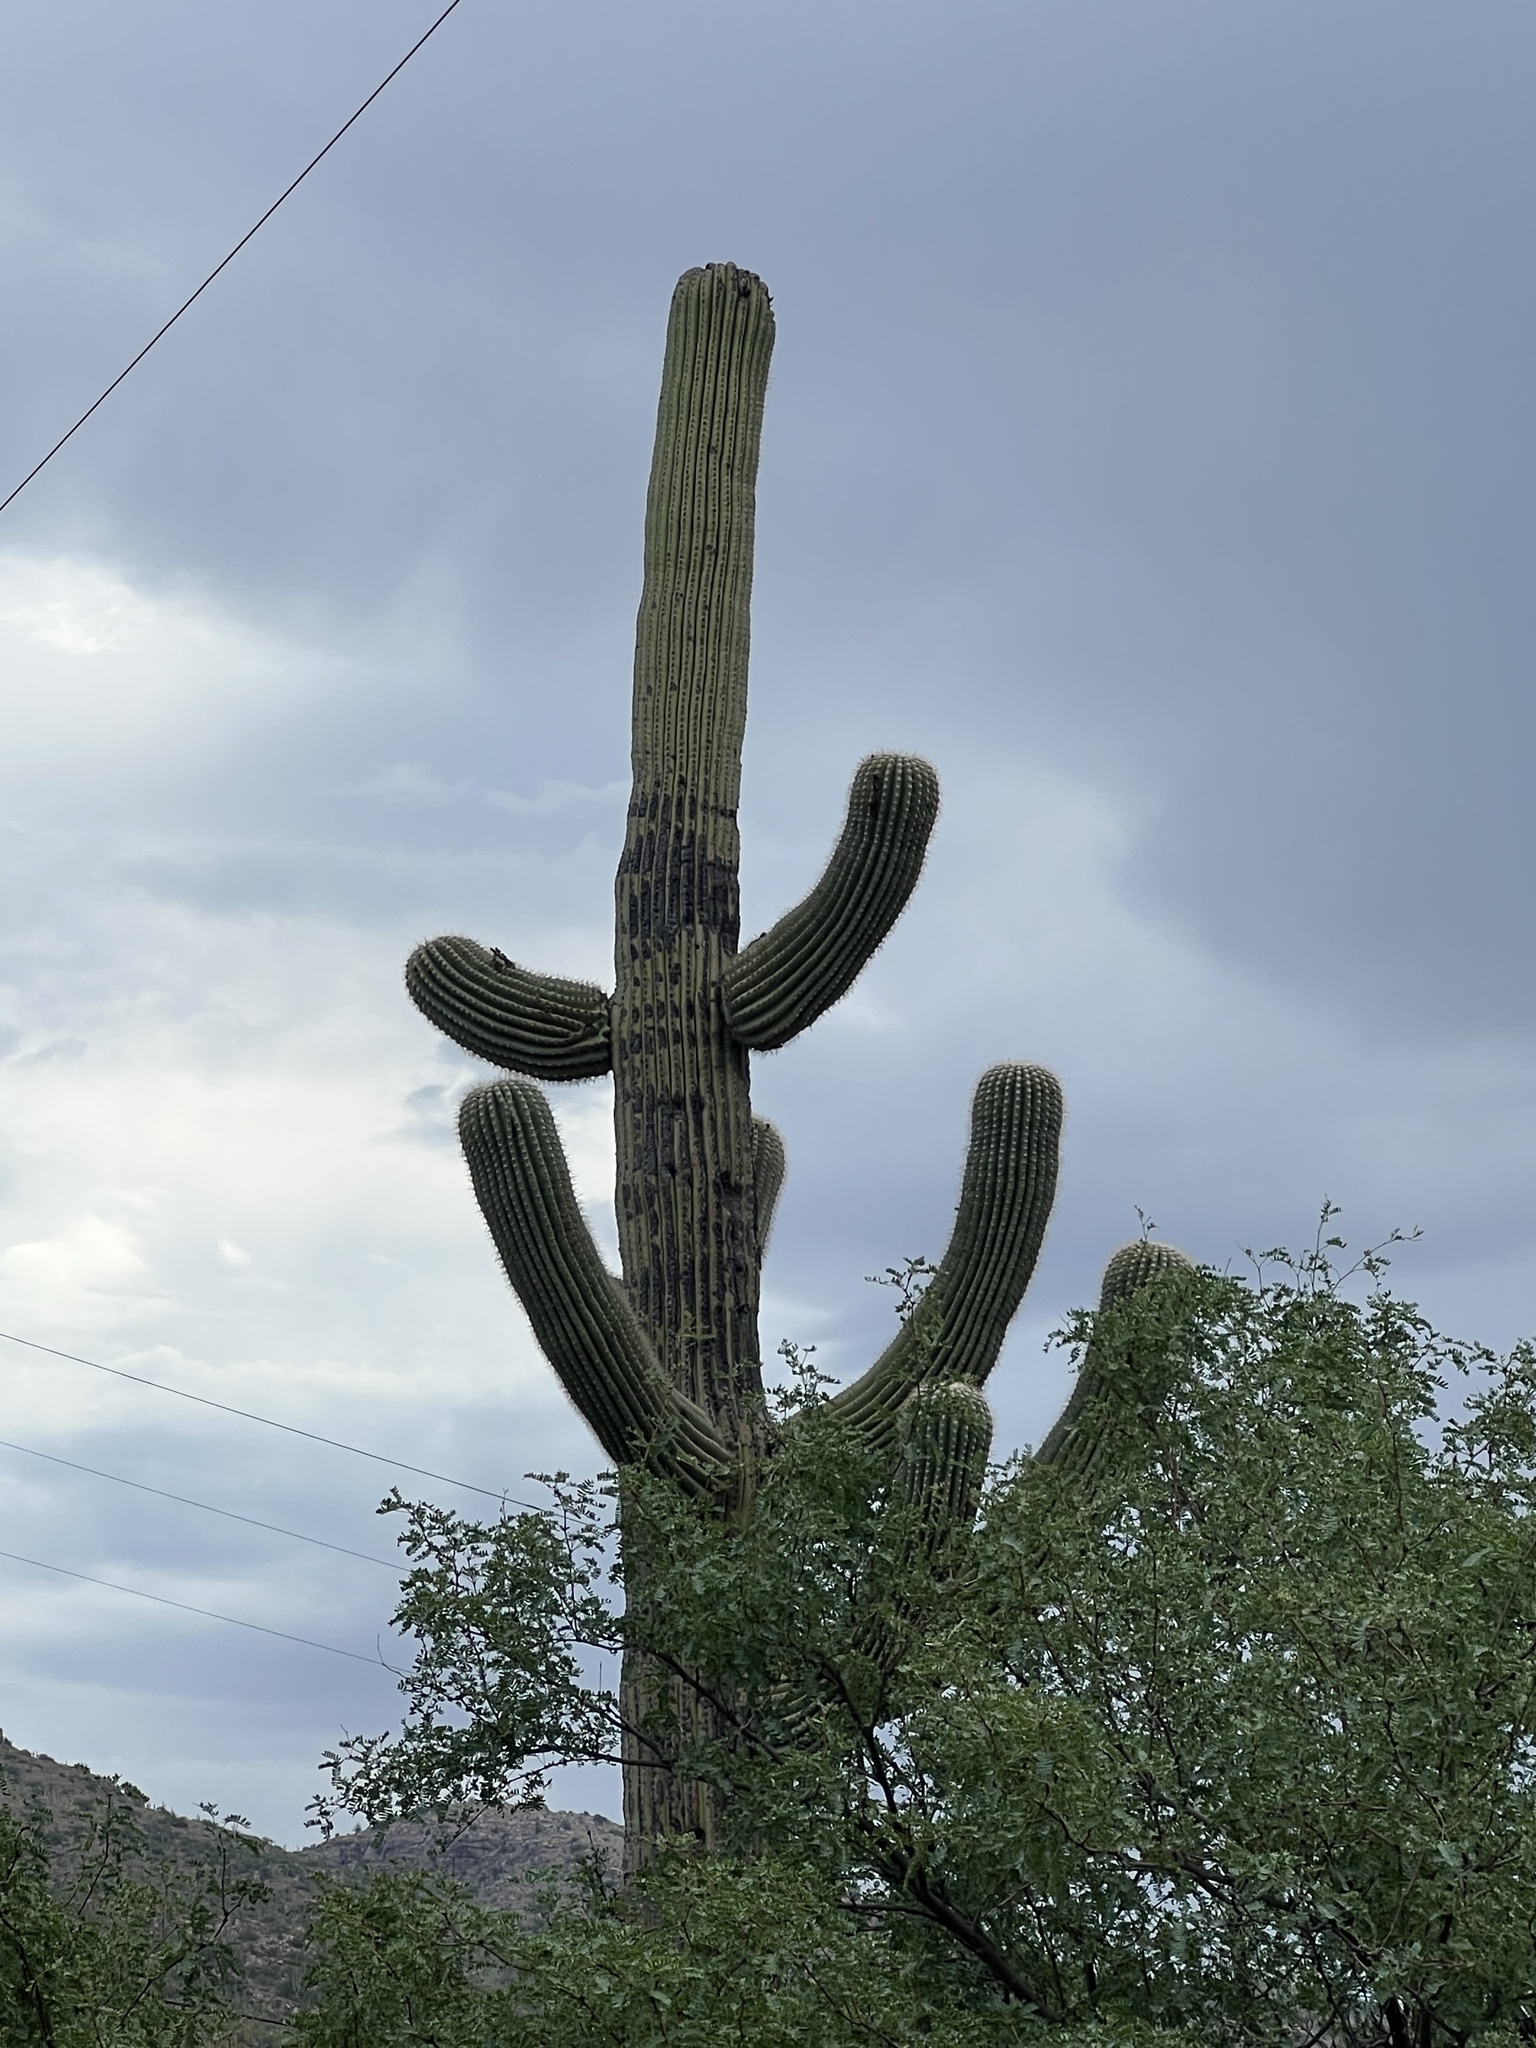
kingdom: Plantae
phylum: Tracheophyta
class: Magnoliopsida
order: Caryophyllales
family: Cactaceae
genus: Carnegiea
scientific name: Carnegiea gigantea
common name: Saguaro
